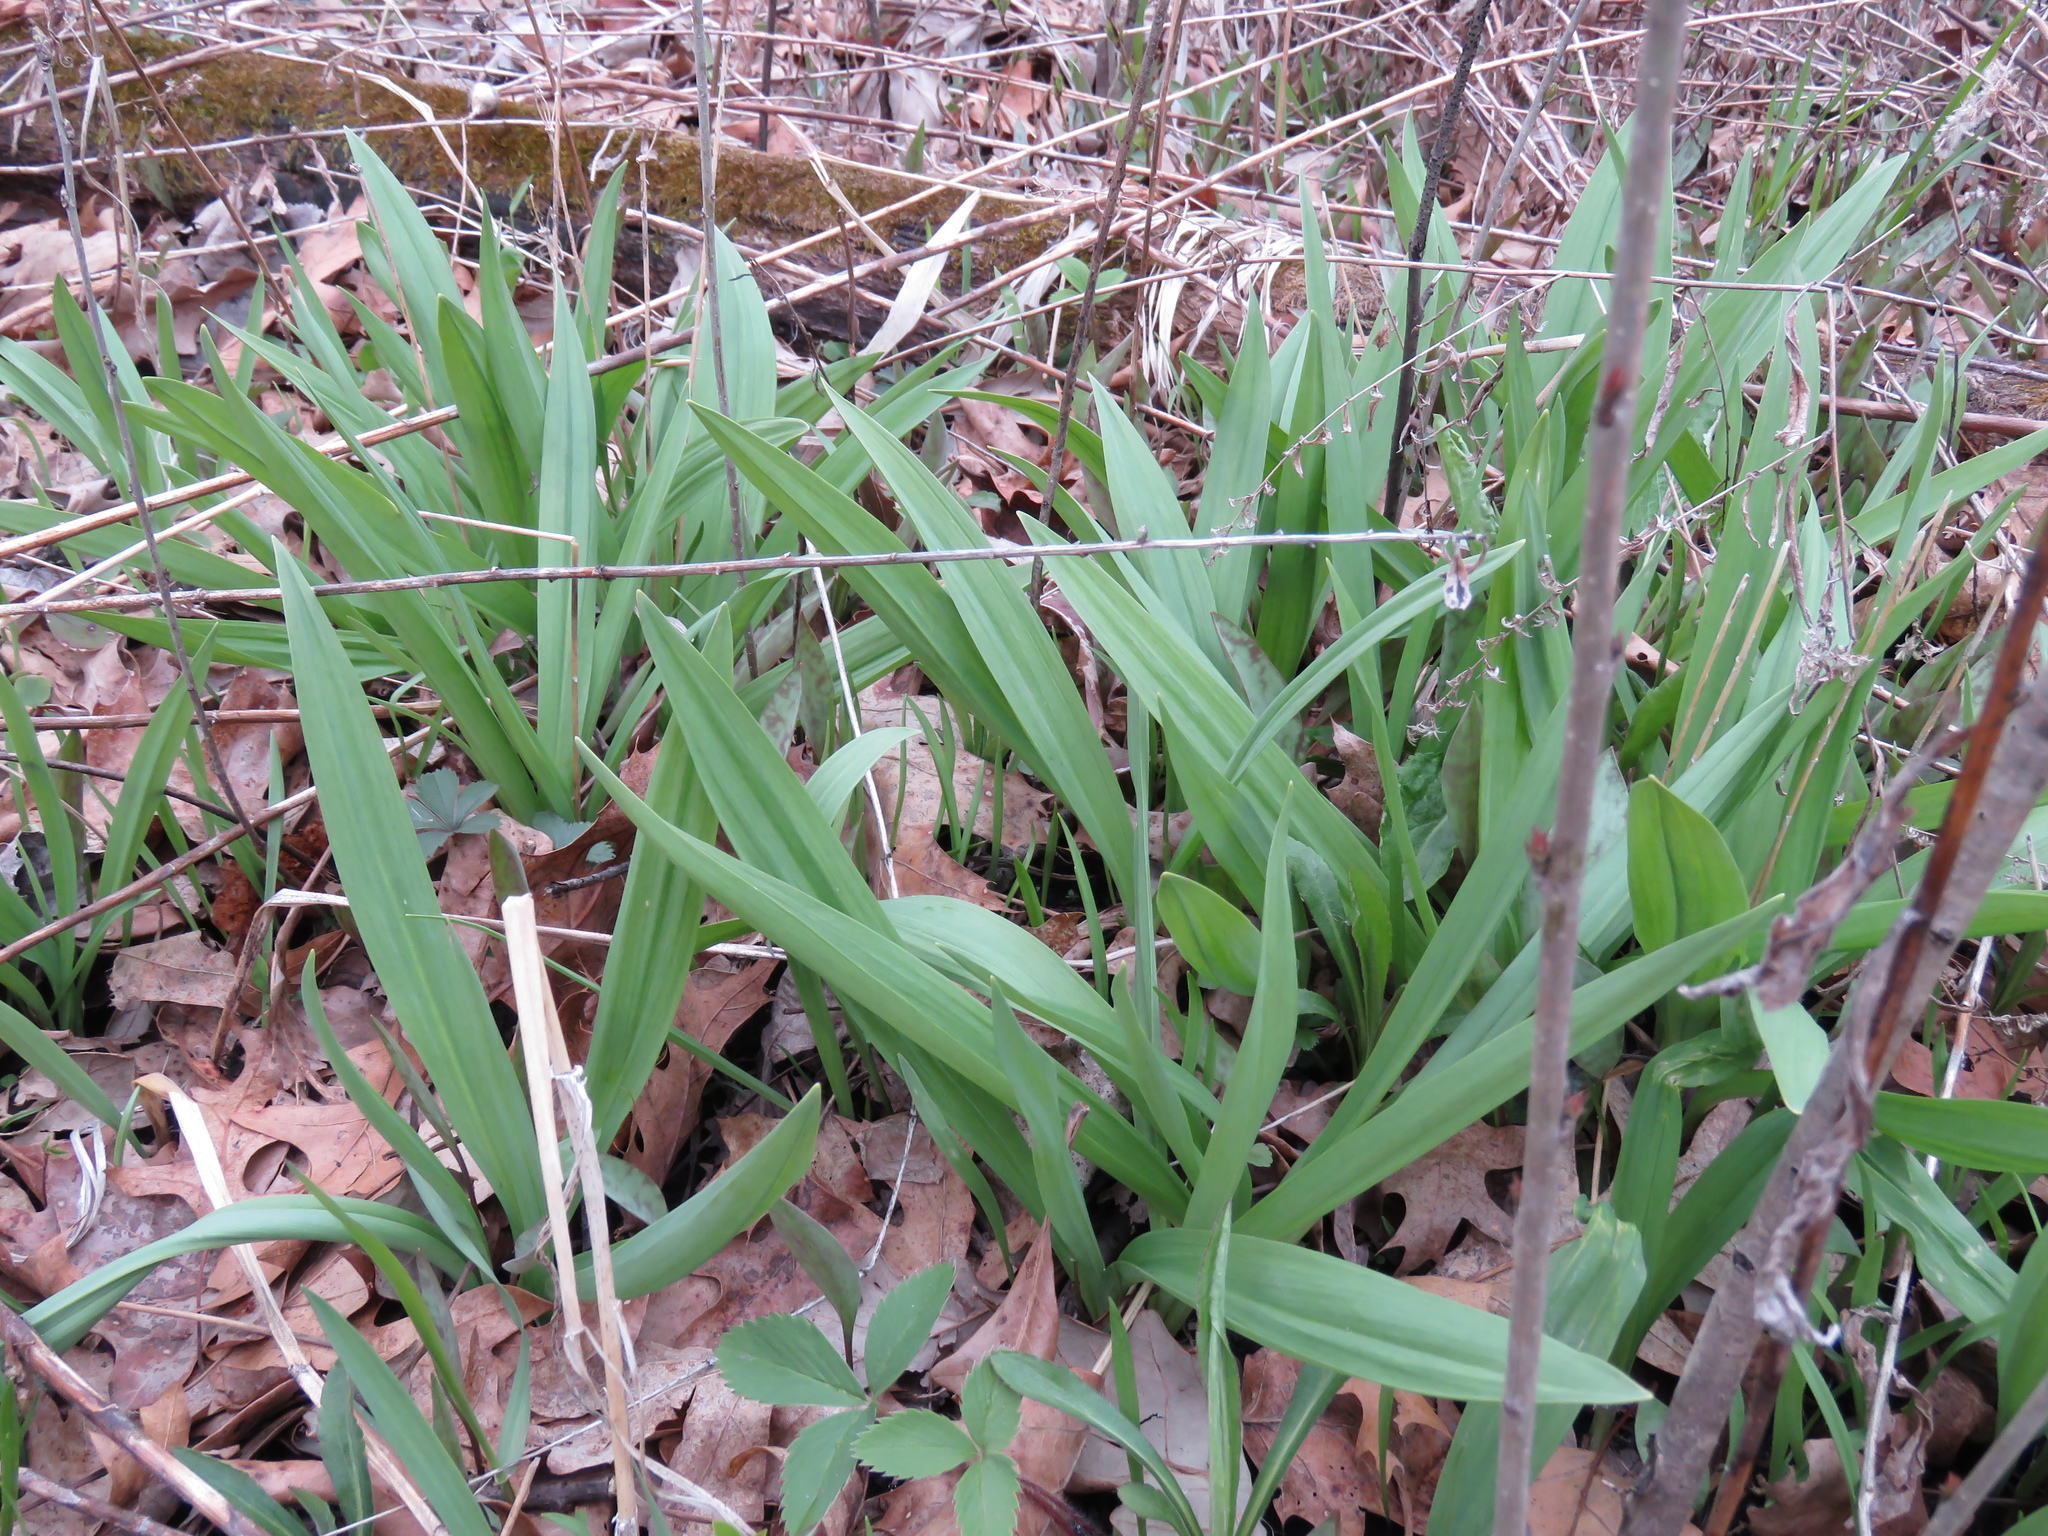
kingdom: Plantae
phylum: Tracheophyta
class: Liliopsida
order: Asparagales
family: Amaryllidaceae
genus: Allium
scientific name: Allium tricoccum
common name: Ramp
